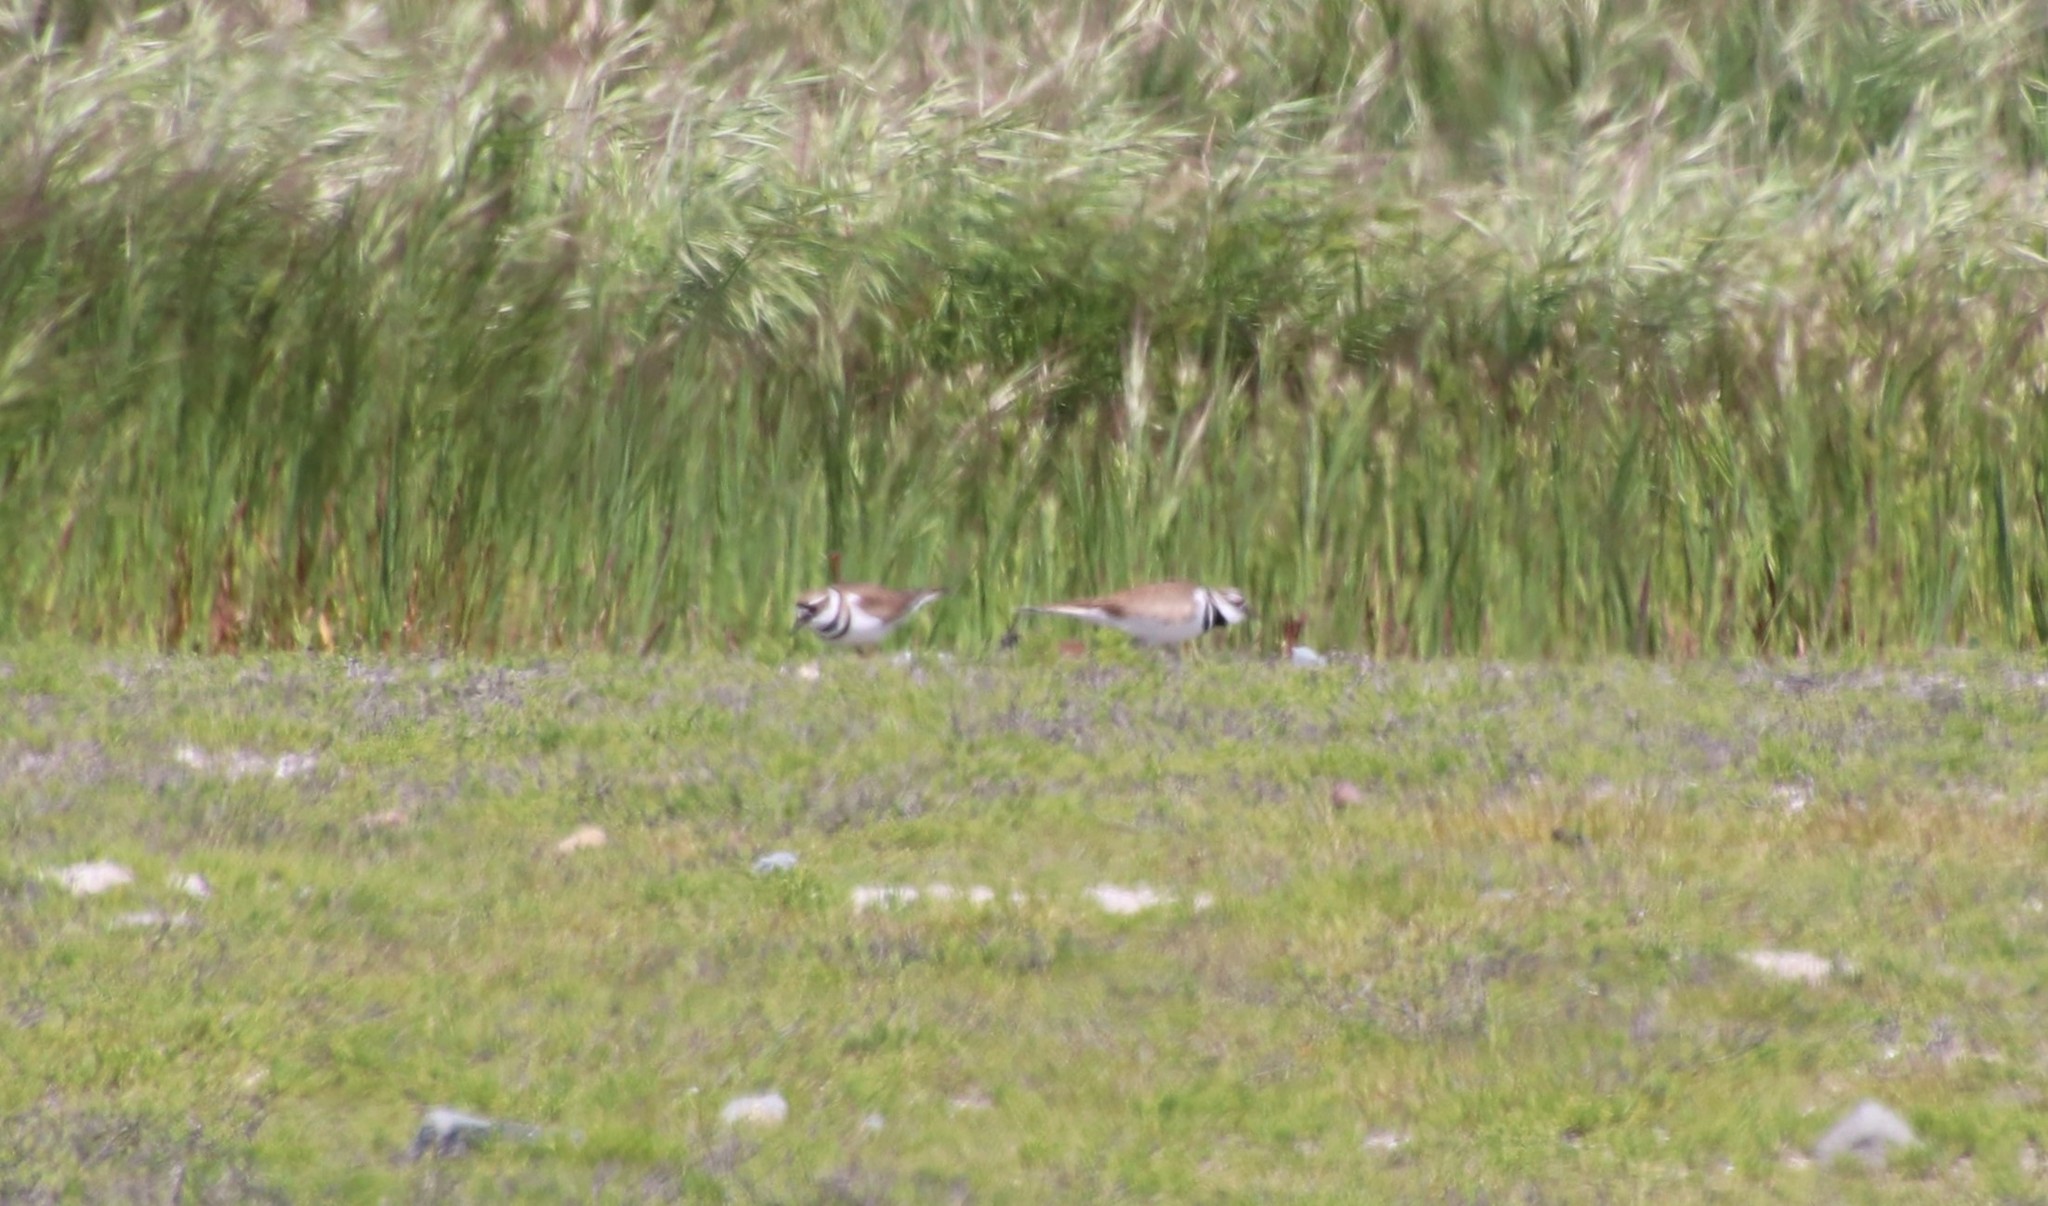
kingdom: Animalia
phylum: Chordata
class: Aves
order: Charadriiformes
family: Charadriidae
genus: Charadrius
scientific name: Charadrius vociferus
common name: Killdeer
